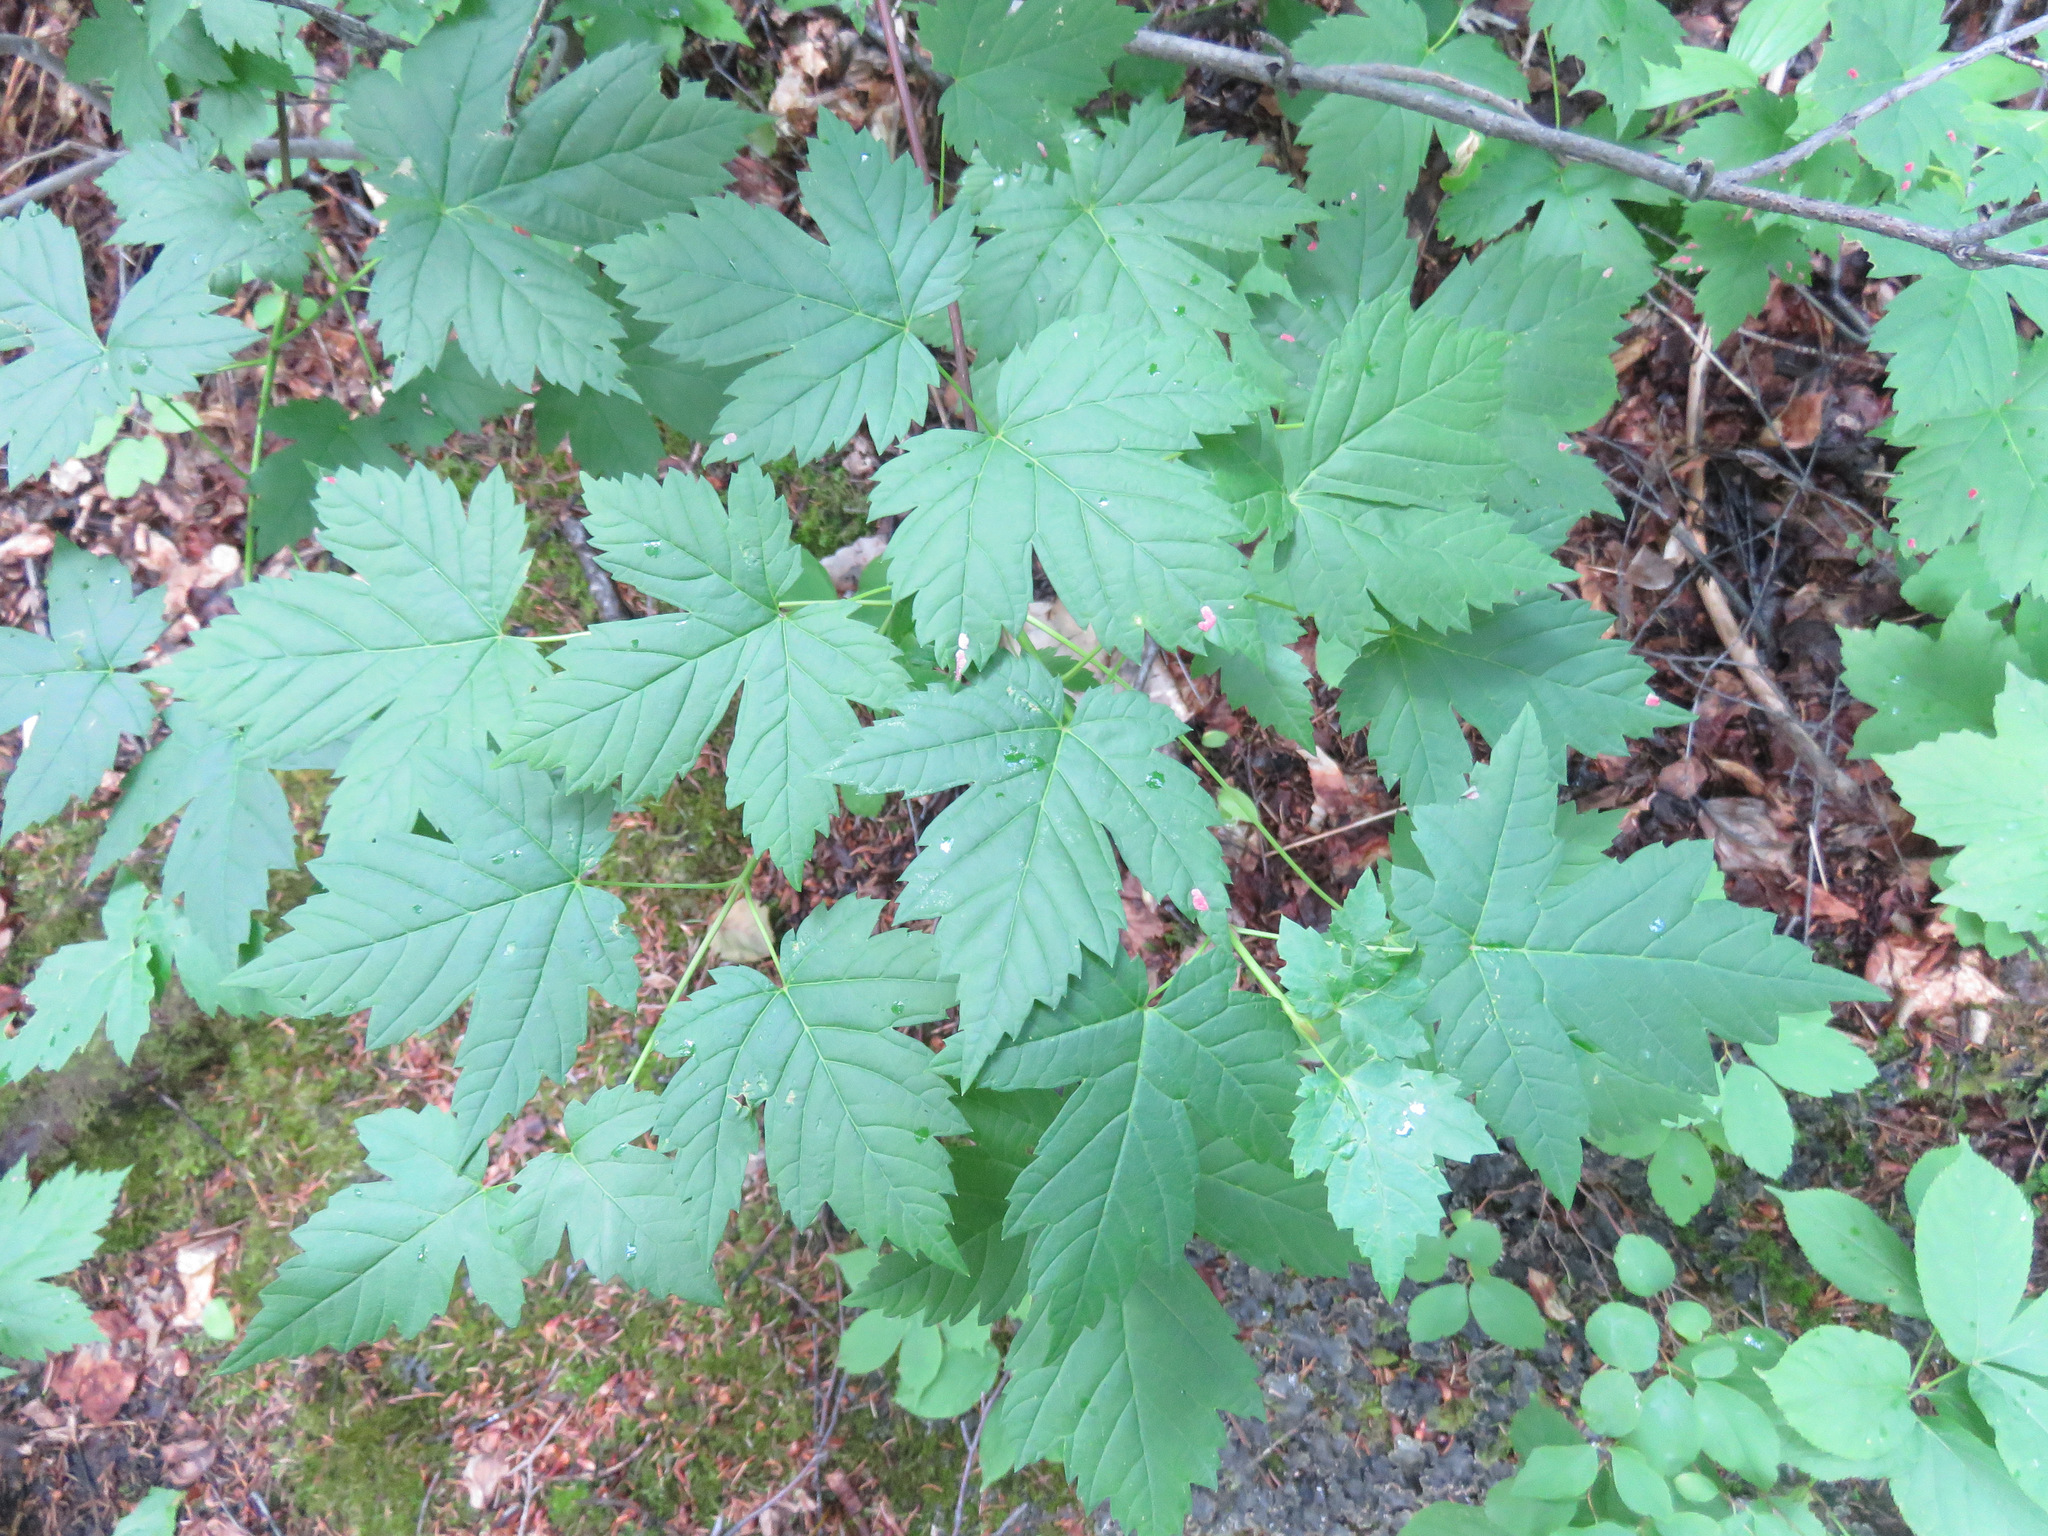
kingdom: Plantae
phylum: Tracheophyta
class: Magnoliopsida
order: Sapindales
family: Sapindaceae
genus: Acer
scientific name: Acer glabrum
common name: Rocky mountain maple
